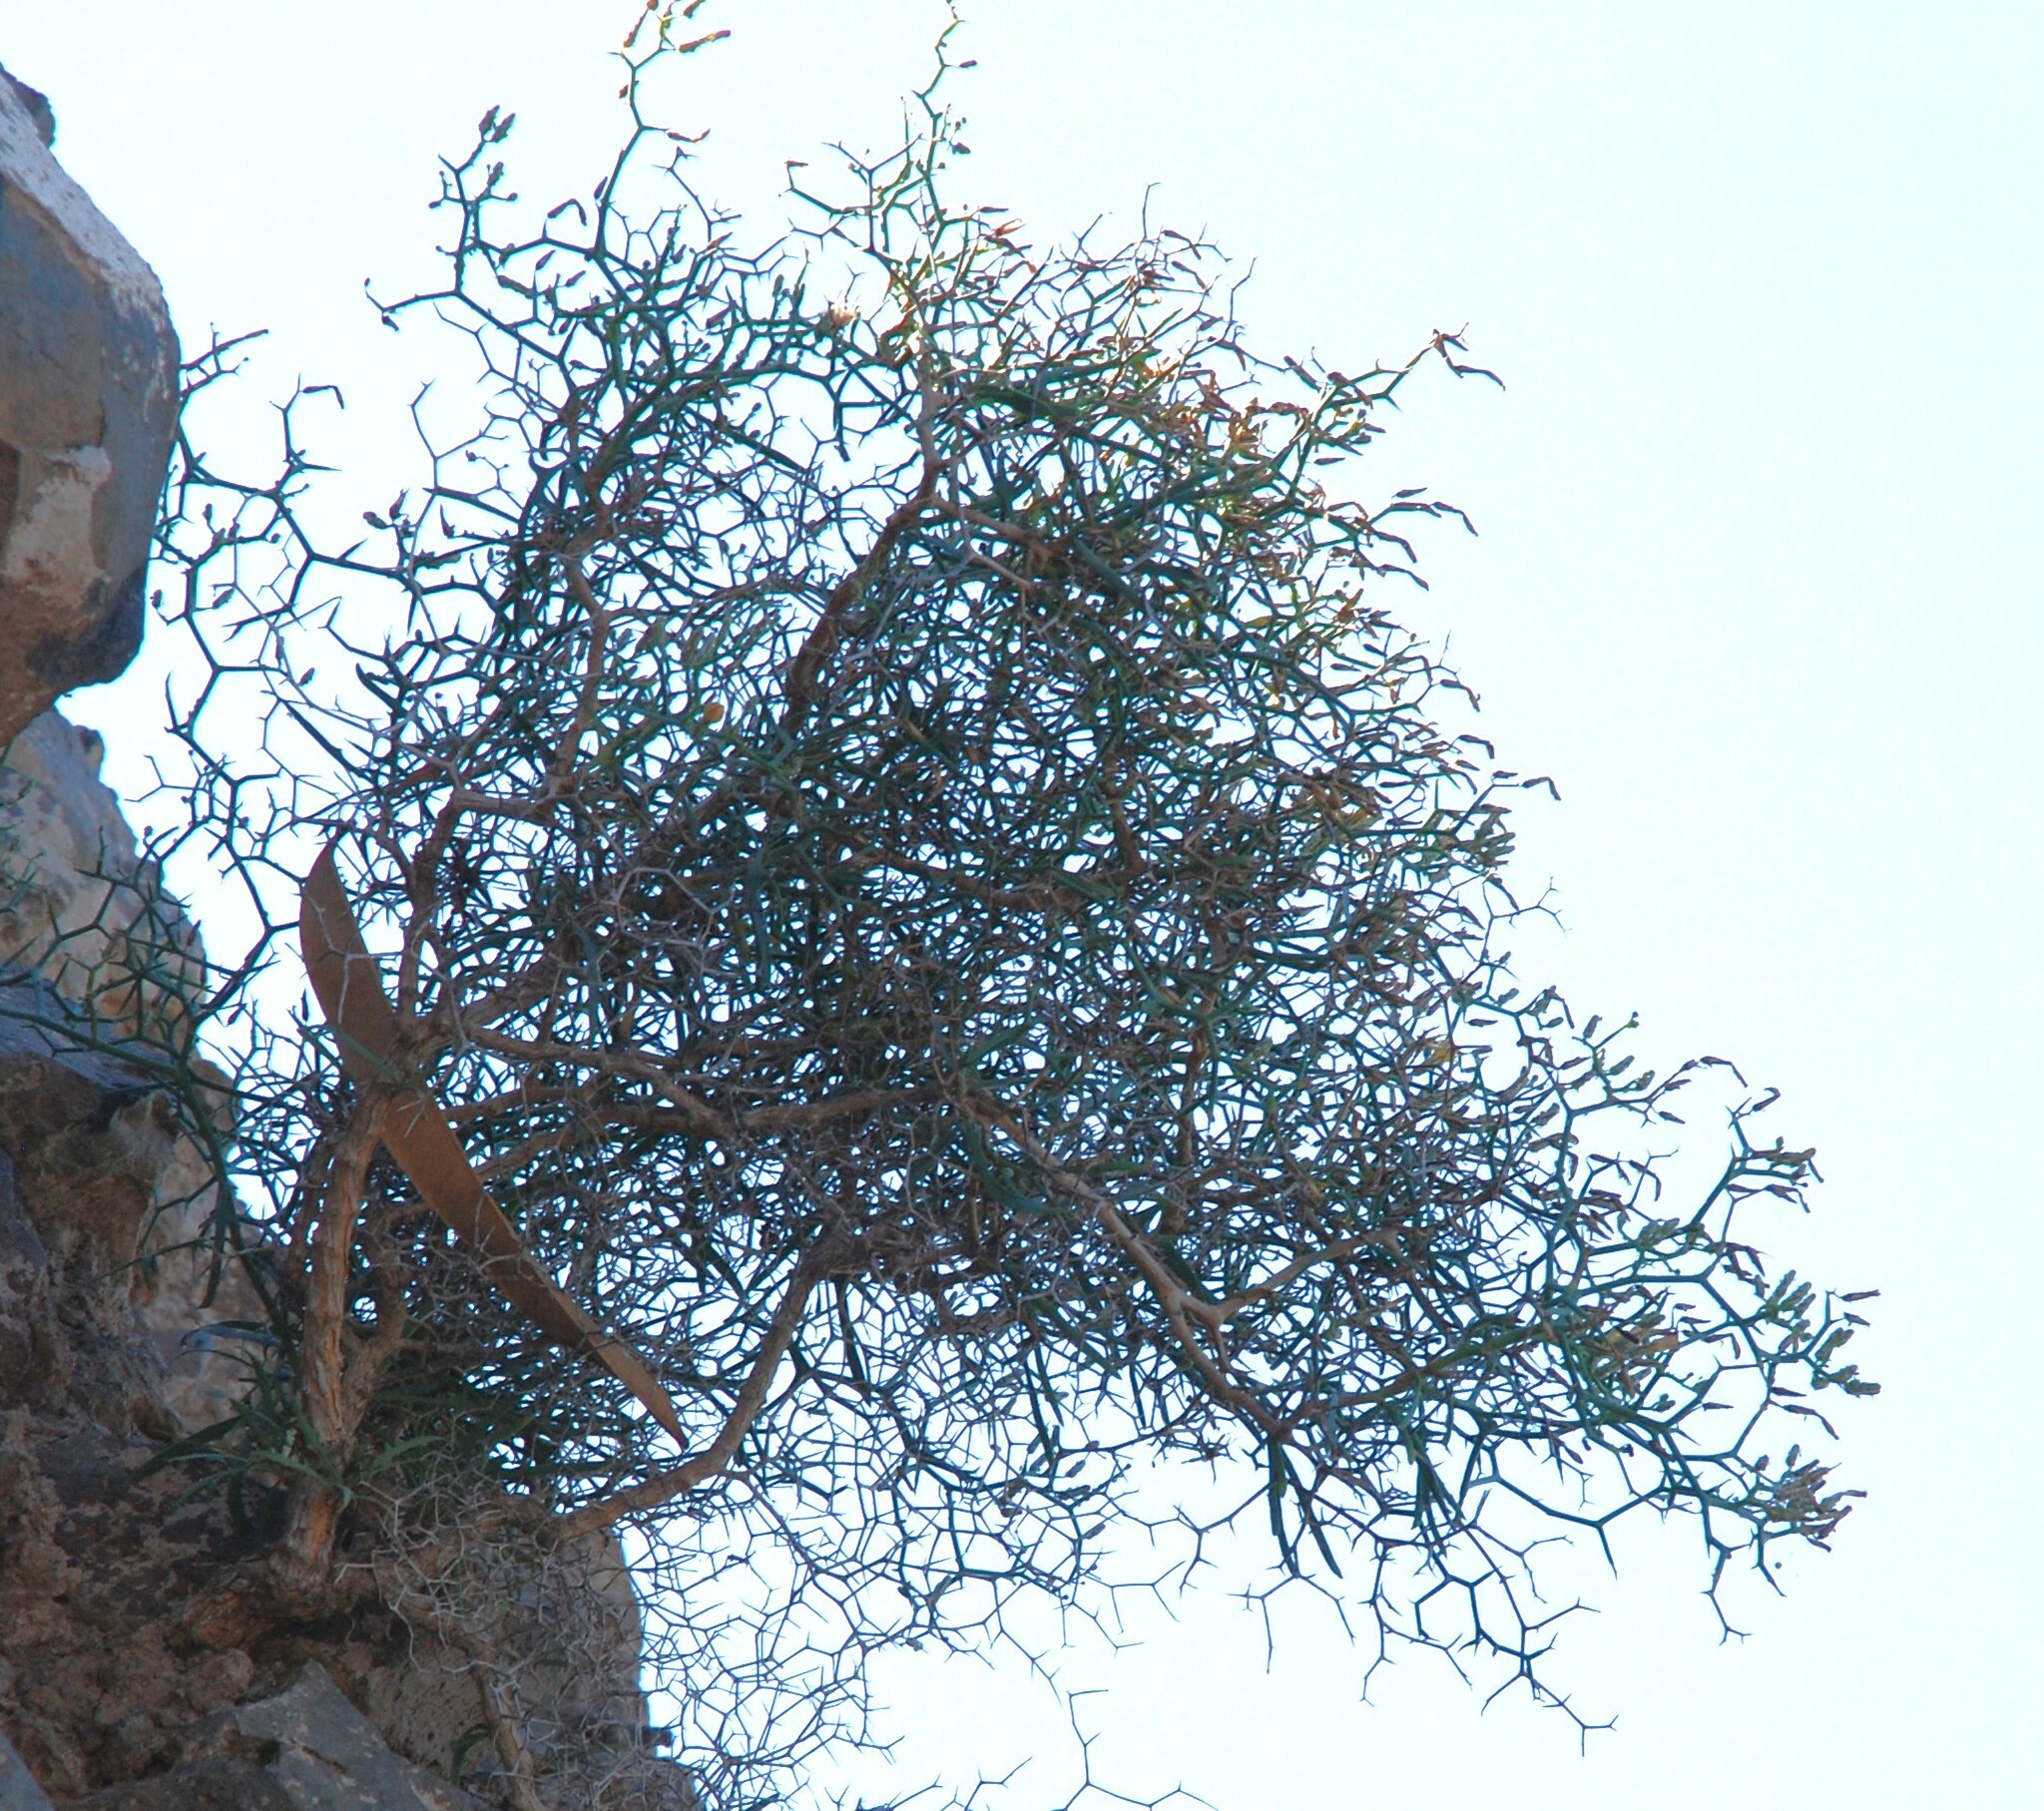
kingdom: Plantae
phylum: Tracheophyta
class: Magnoliopsida
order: Asterales
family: Asteraceae
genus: Launaea
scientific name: Launaea arborescens
